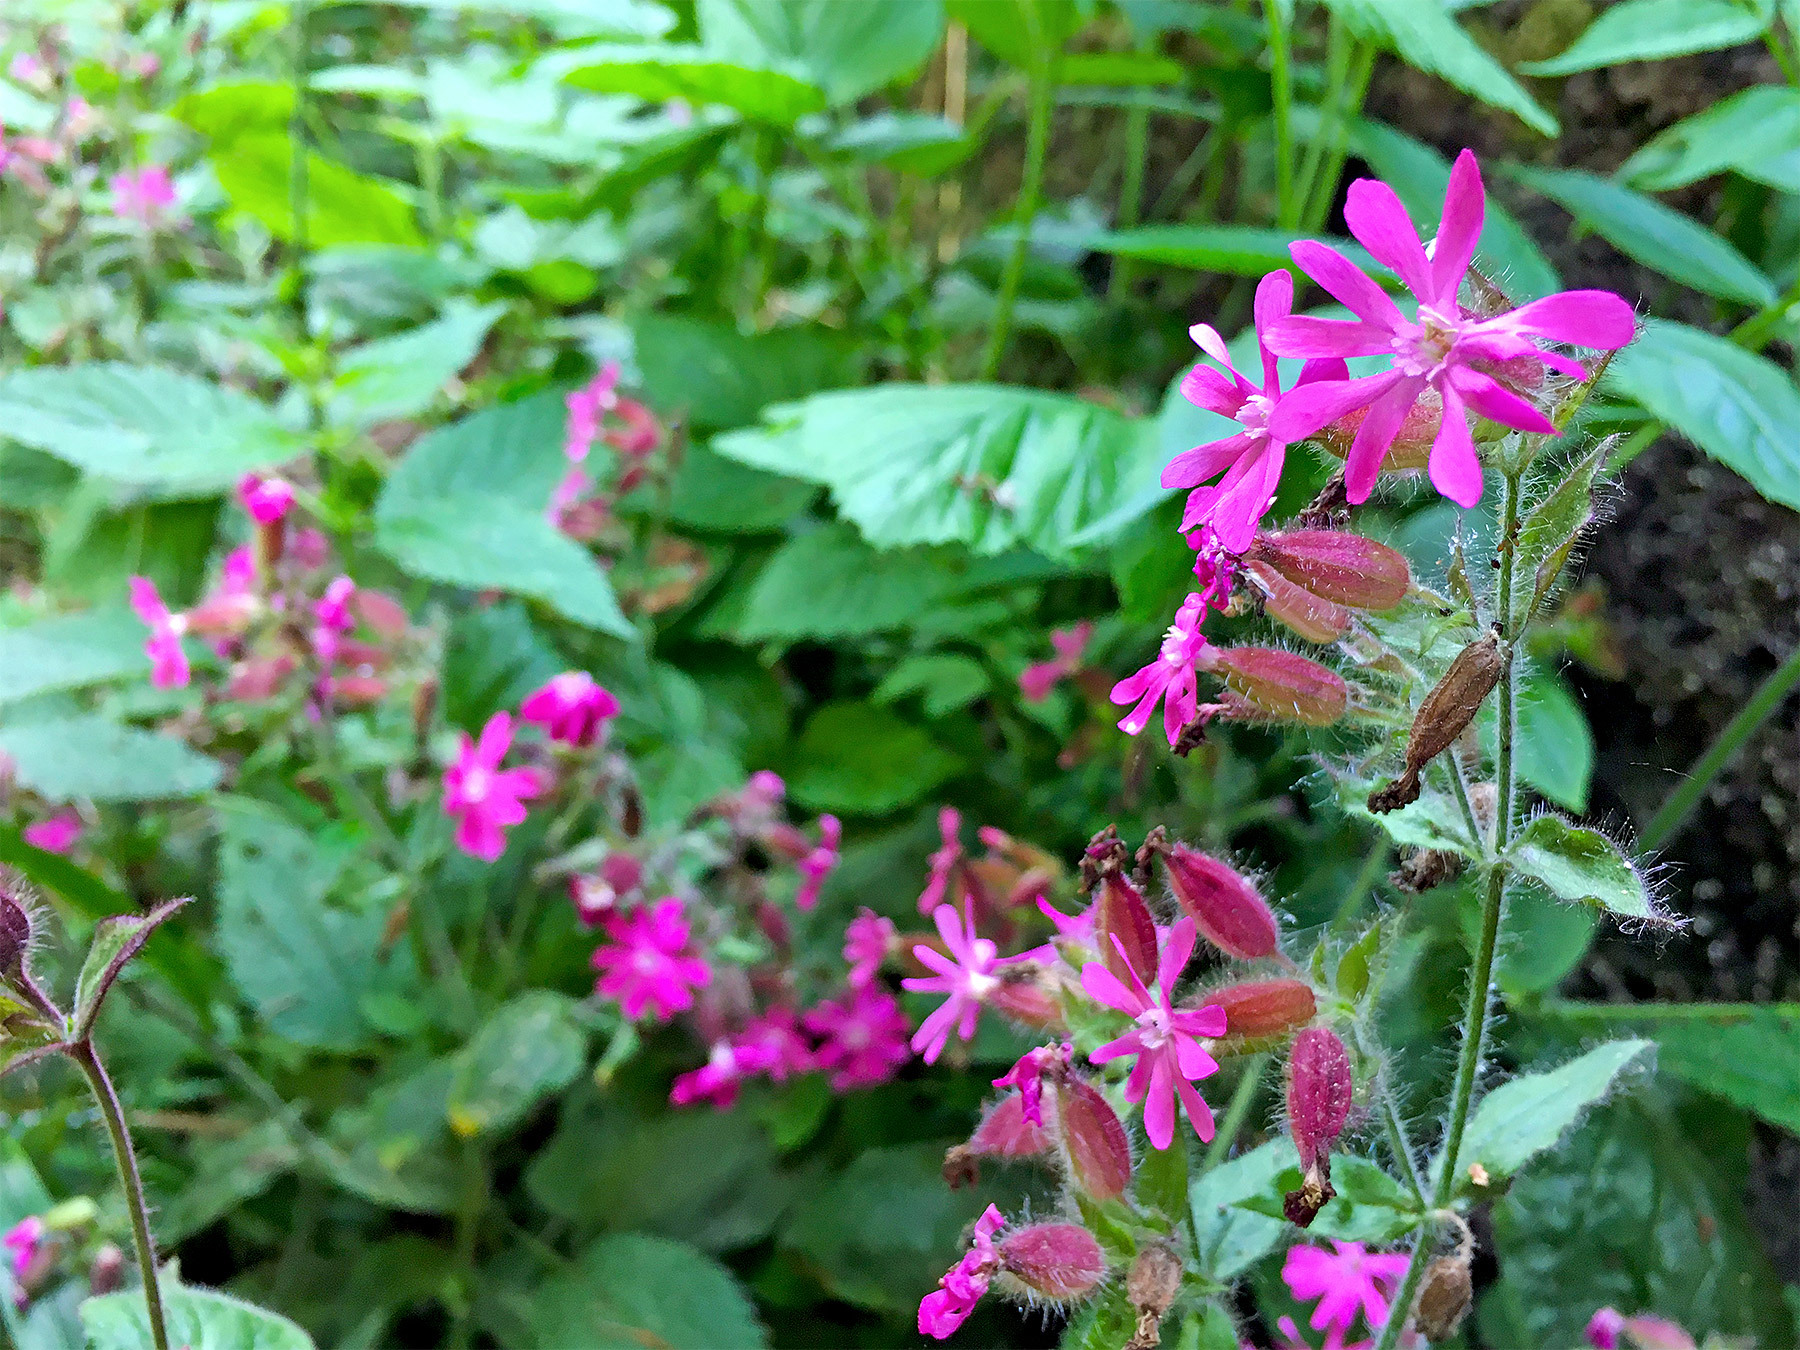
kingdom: Plantae
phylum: Tracheophyta
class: Magnoliopsida
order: Caryophyllales
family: Caryophyllaceae
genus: Silene
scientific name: Silene dioica
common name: Red campion
